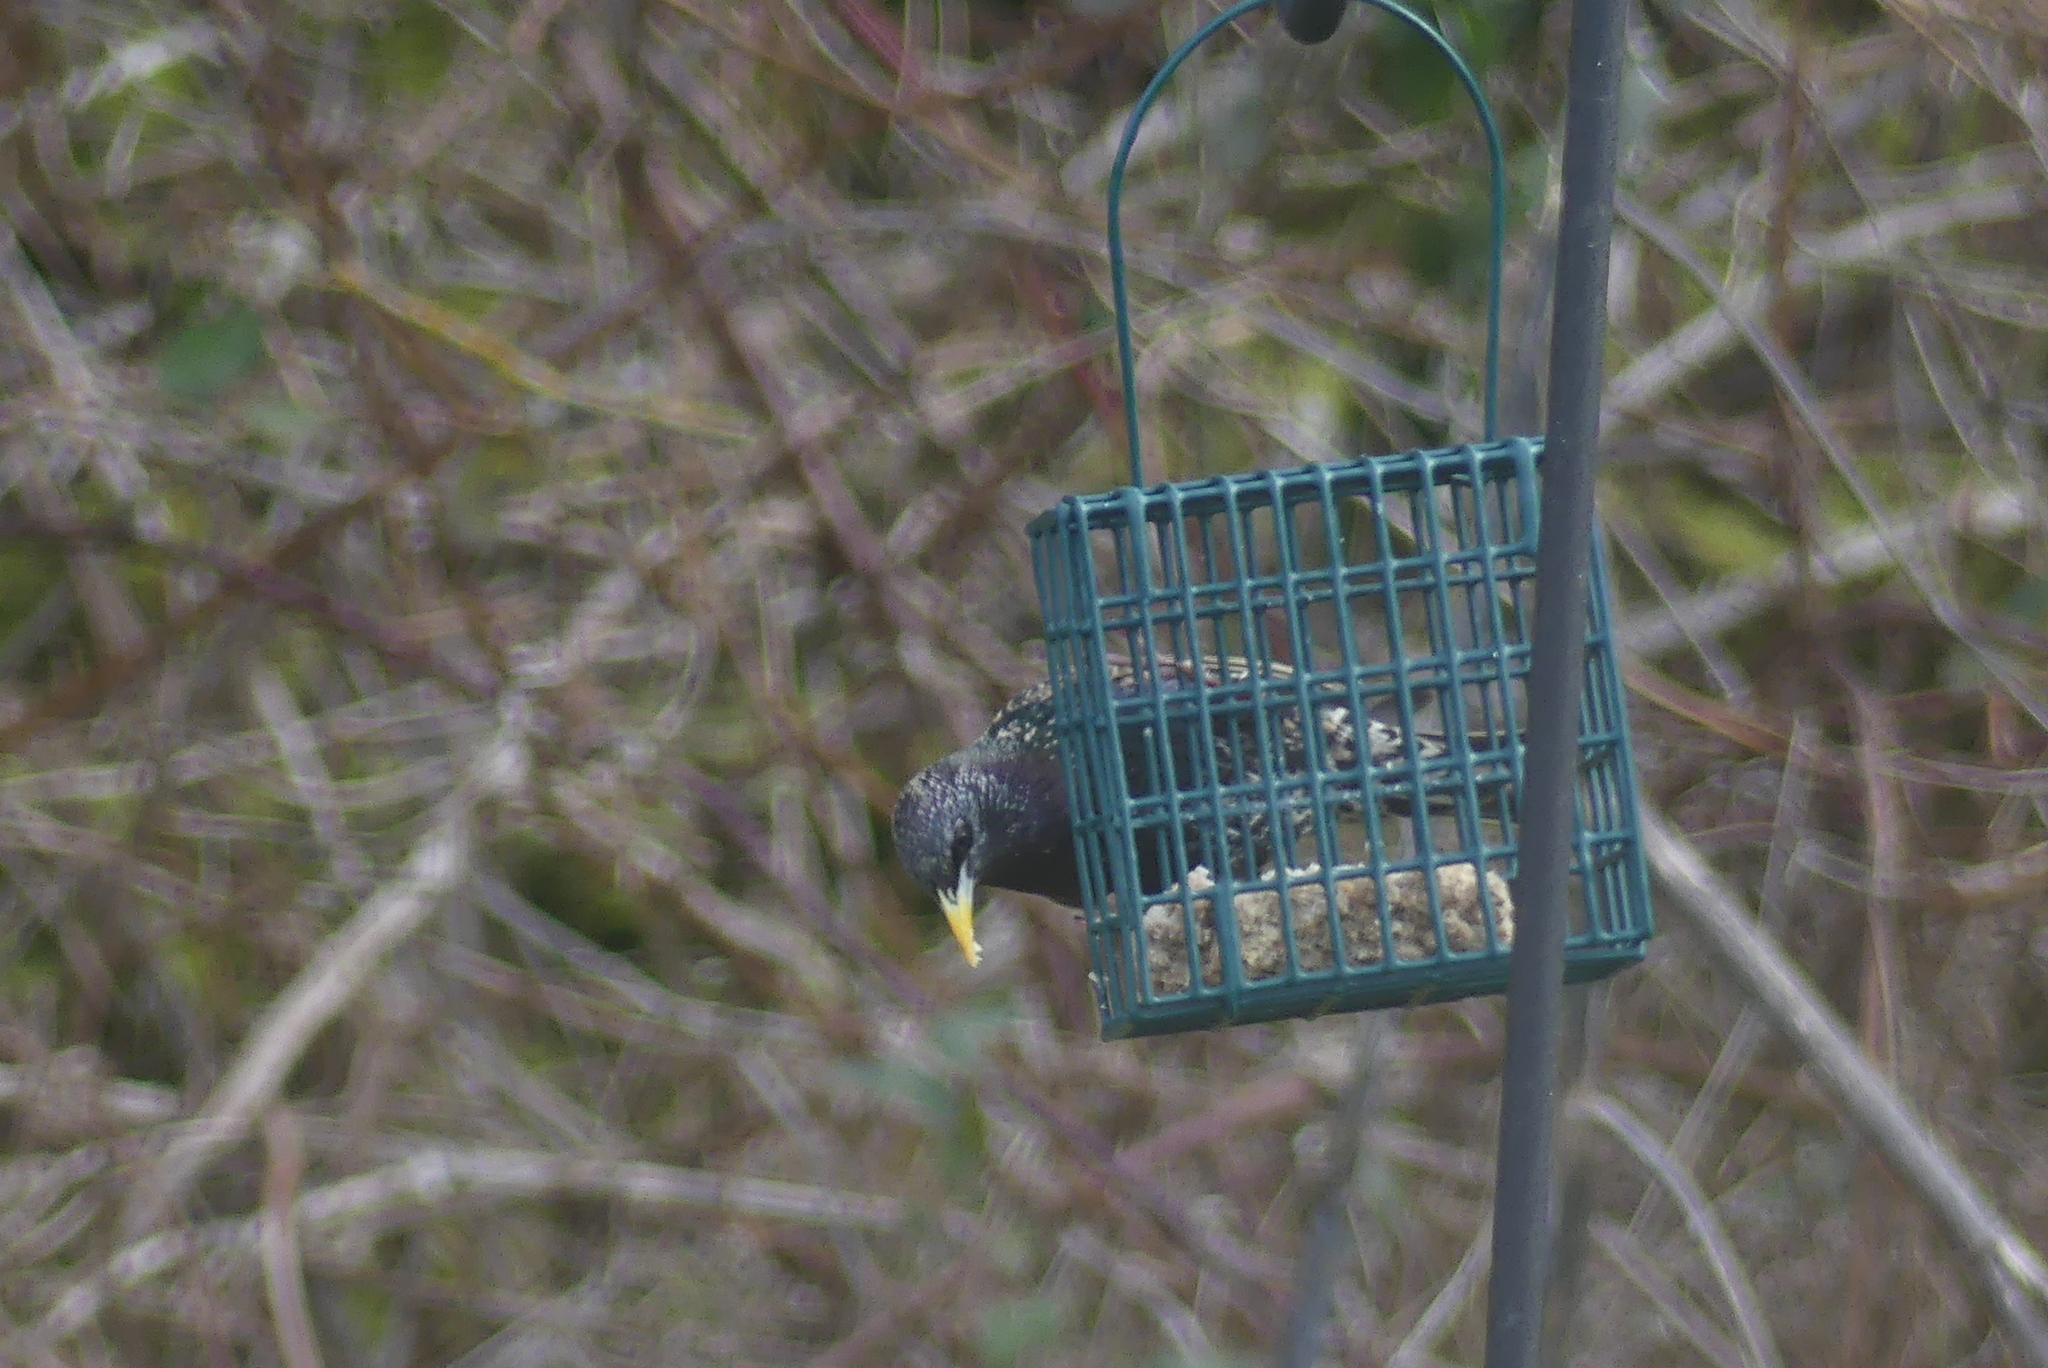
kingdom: Animalia
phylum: Chordata
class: Aves
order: Passeriformes
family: Sturnidae
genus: Sturnus
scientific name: Sturnus vulgaris
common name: Common starling
